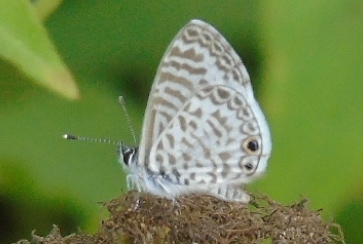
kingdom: Animalia
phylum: Arthropoda
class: Insecta
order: Lepidoptera
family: Lycaenidae
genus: Leptotes
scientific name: Leptotes theonus
